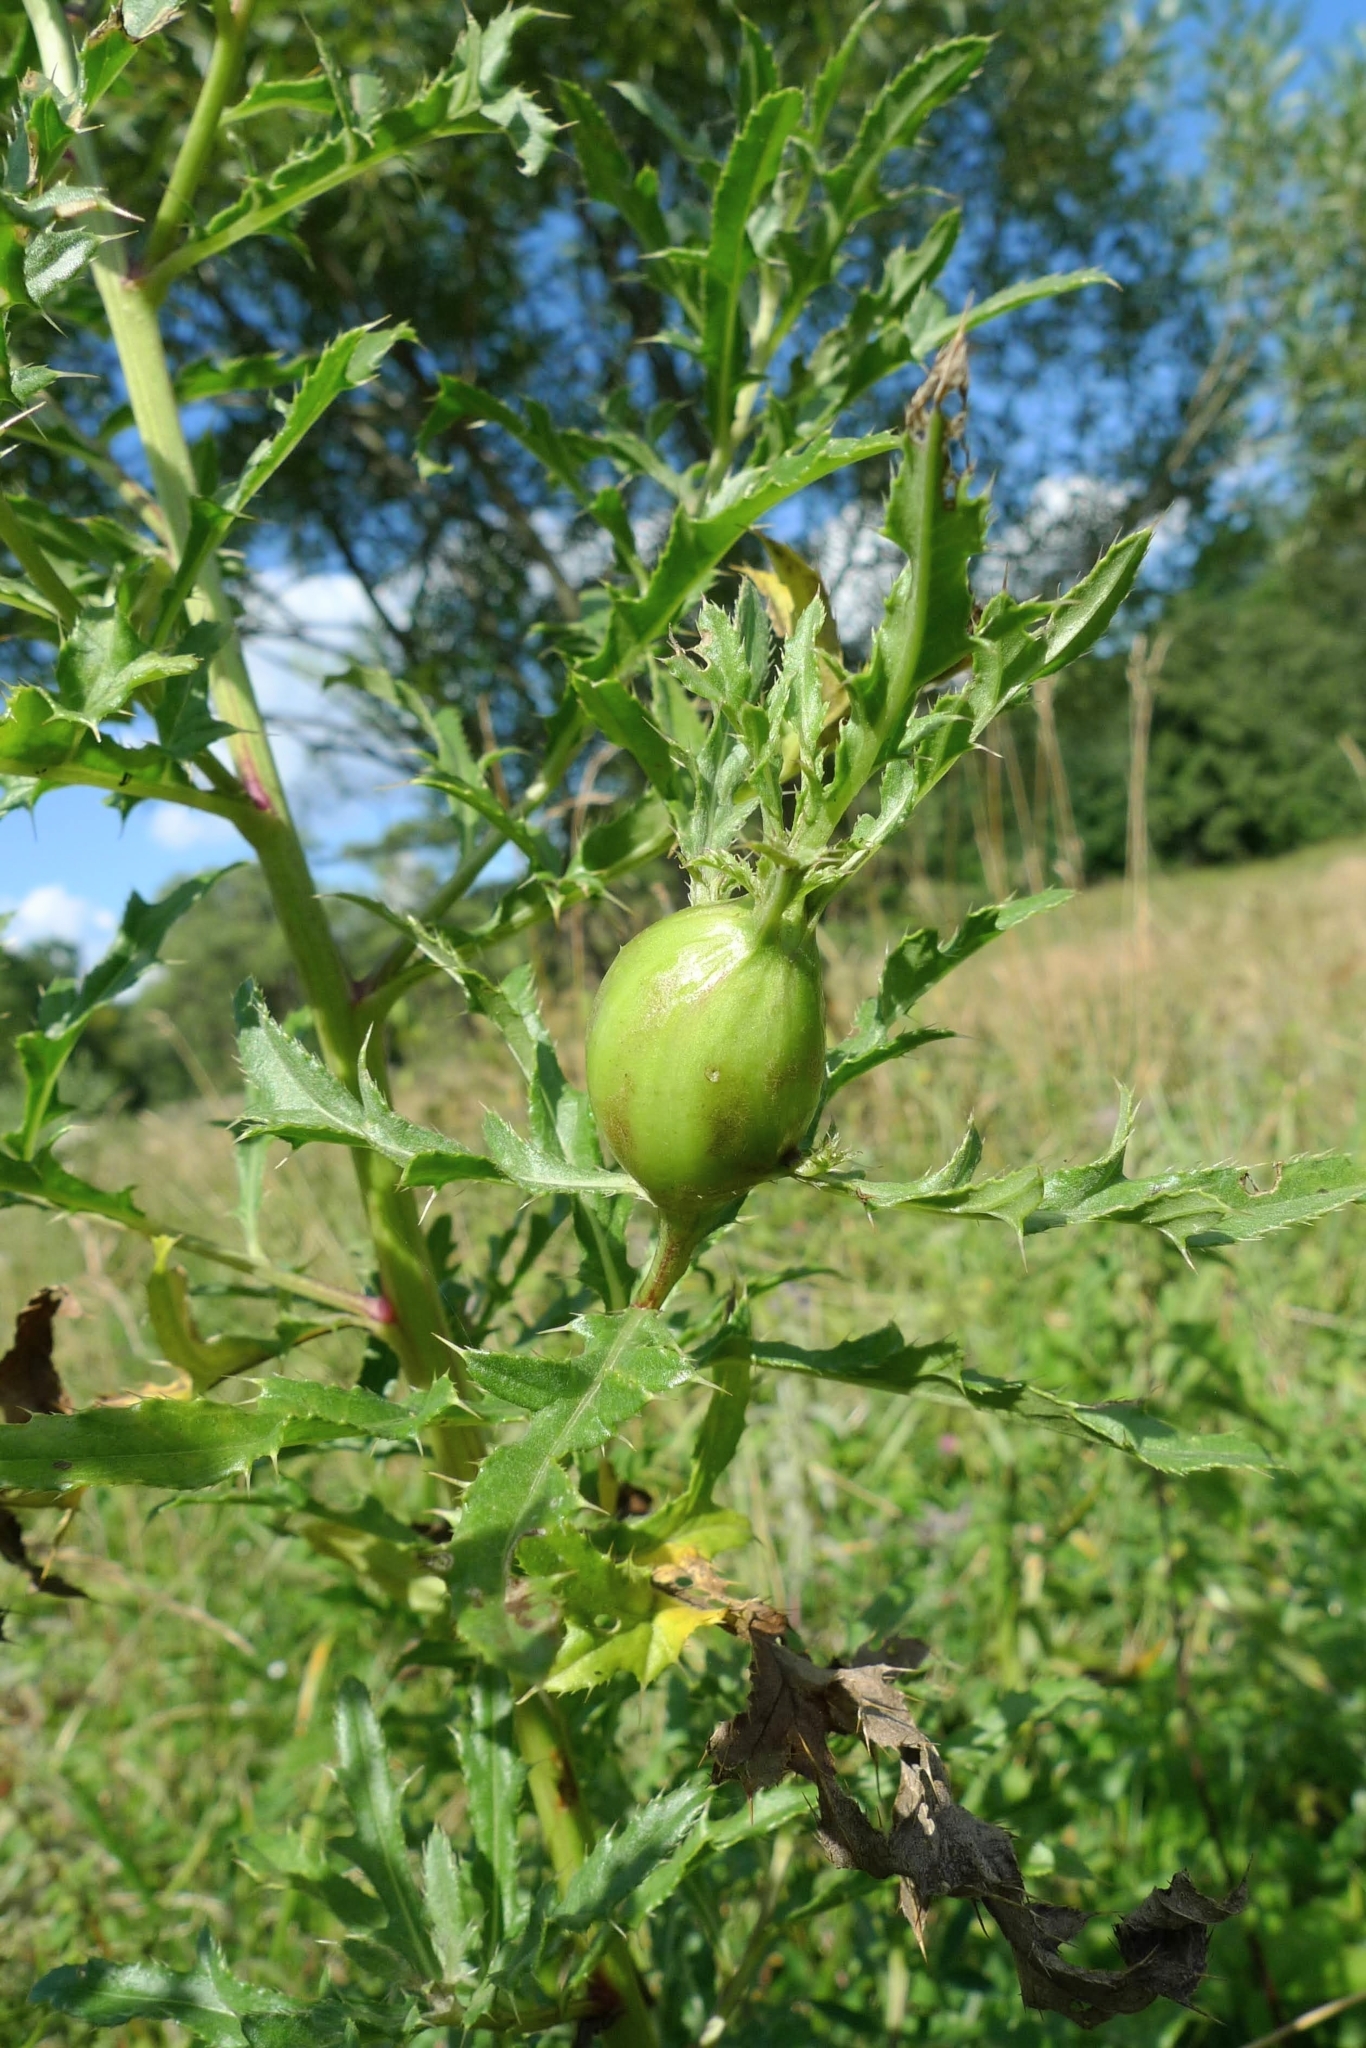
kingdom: Animalia
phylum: Arthropoda
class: Insecta
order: Diptera
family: Tephritidae
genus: Urophora
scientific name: Urophora cardui
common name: Fruit fly
